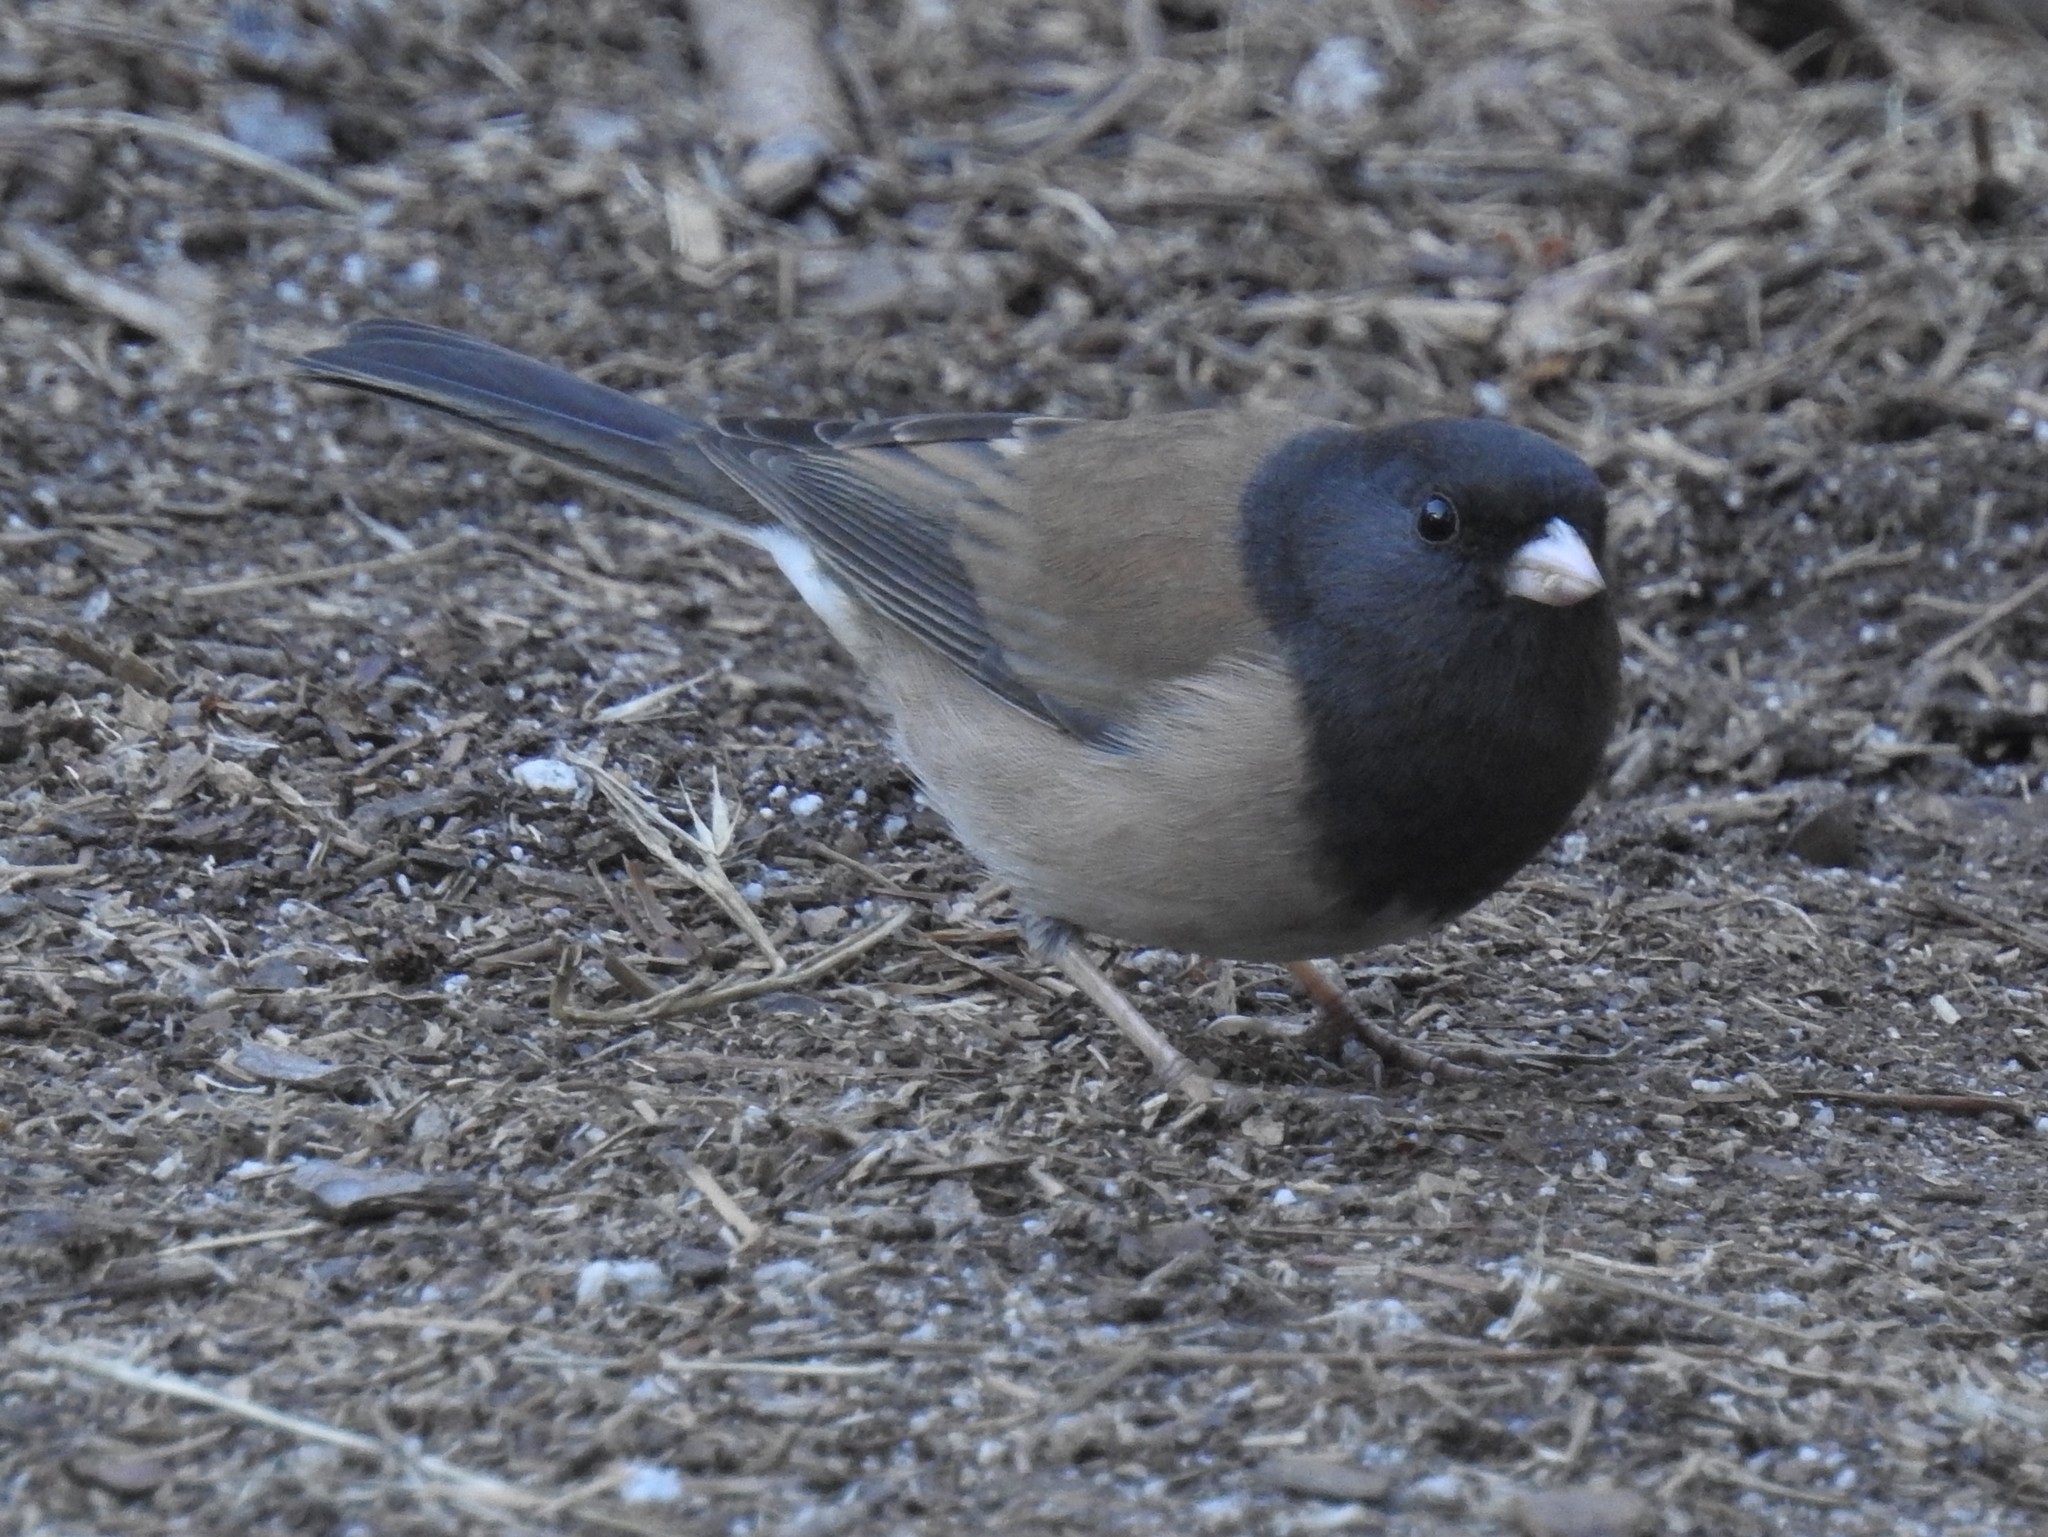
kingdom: Animalia
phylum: Chordata
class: Aves
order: Passeriformes
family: Passerellidae
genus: Junco
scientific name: Junco hyemalis
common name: Dark-eyed junco
